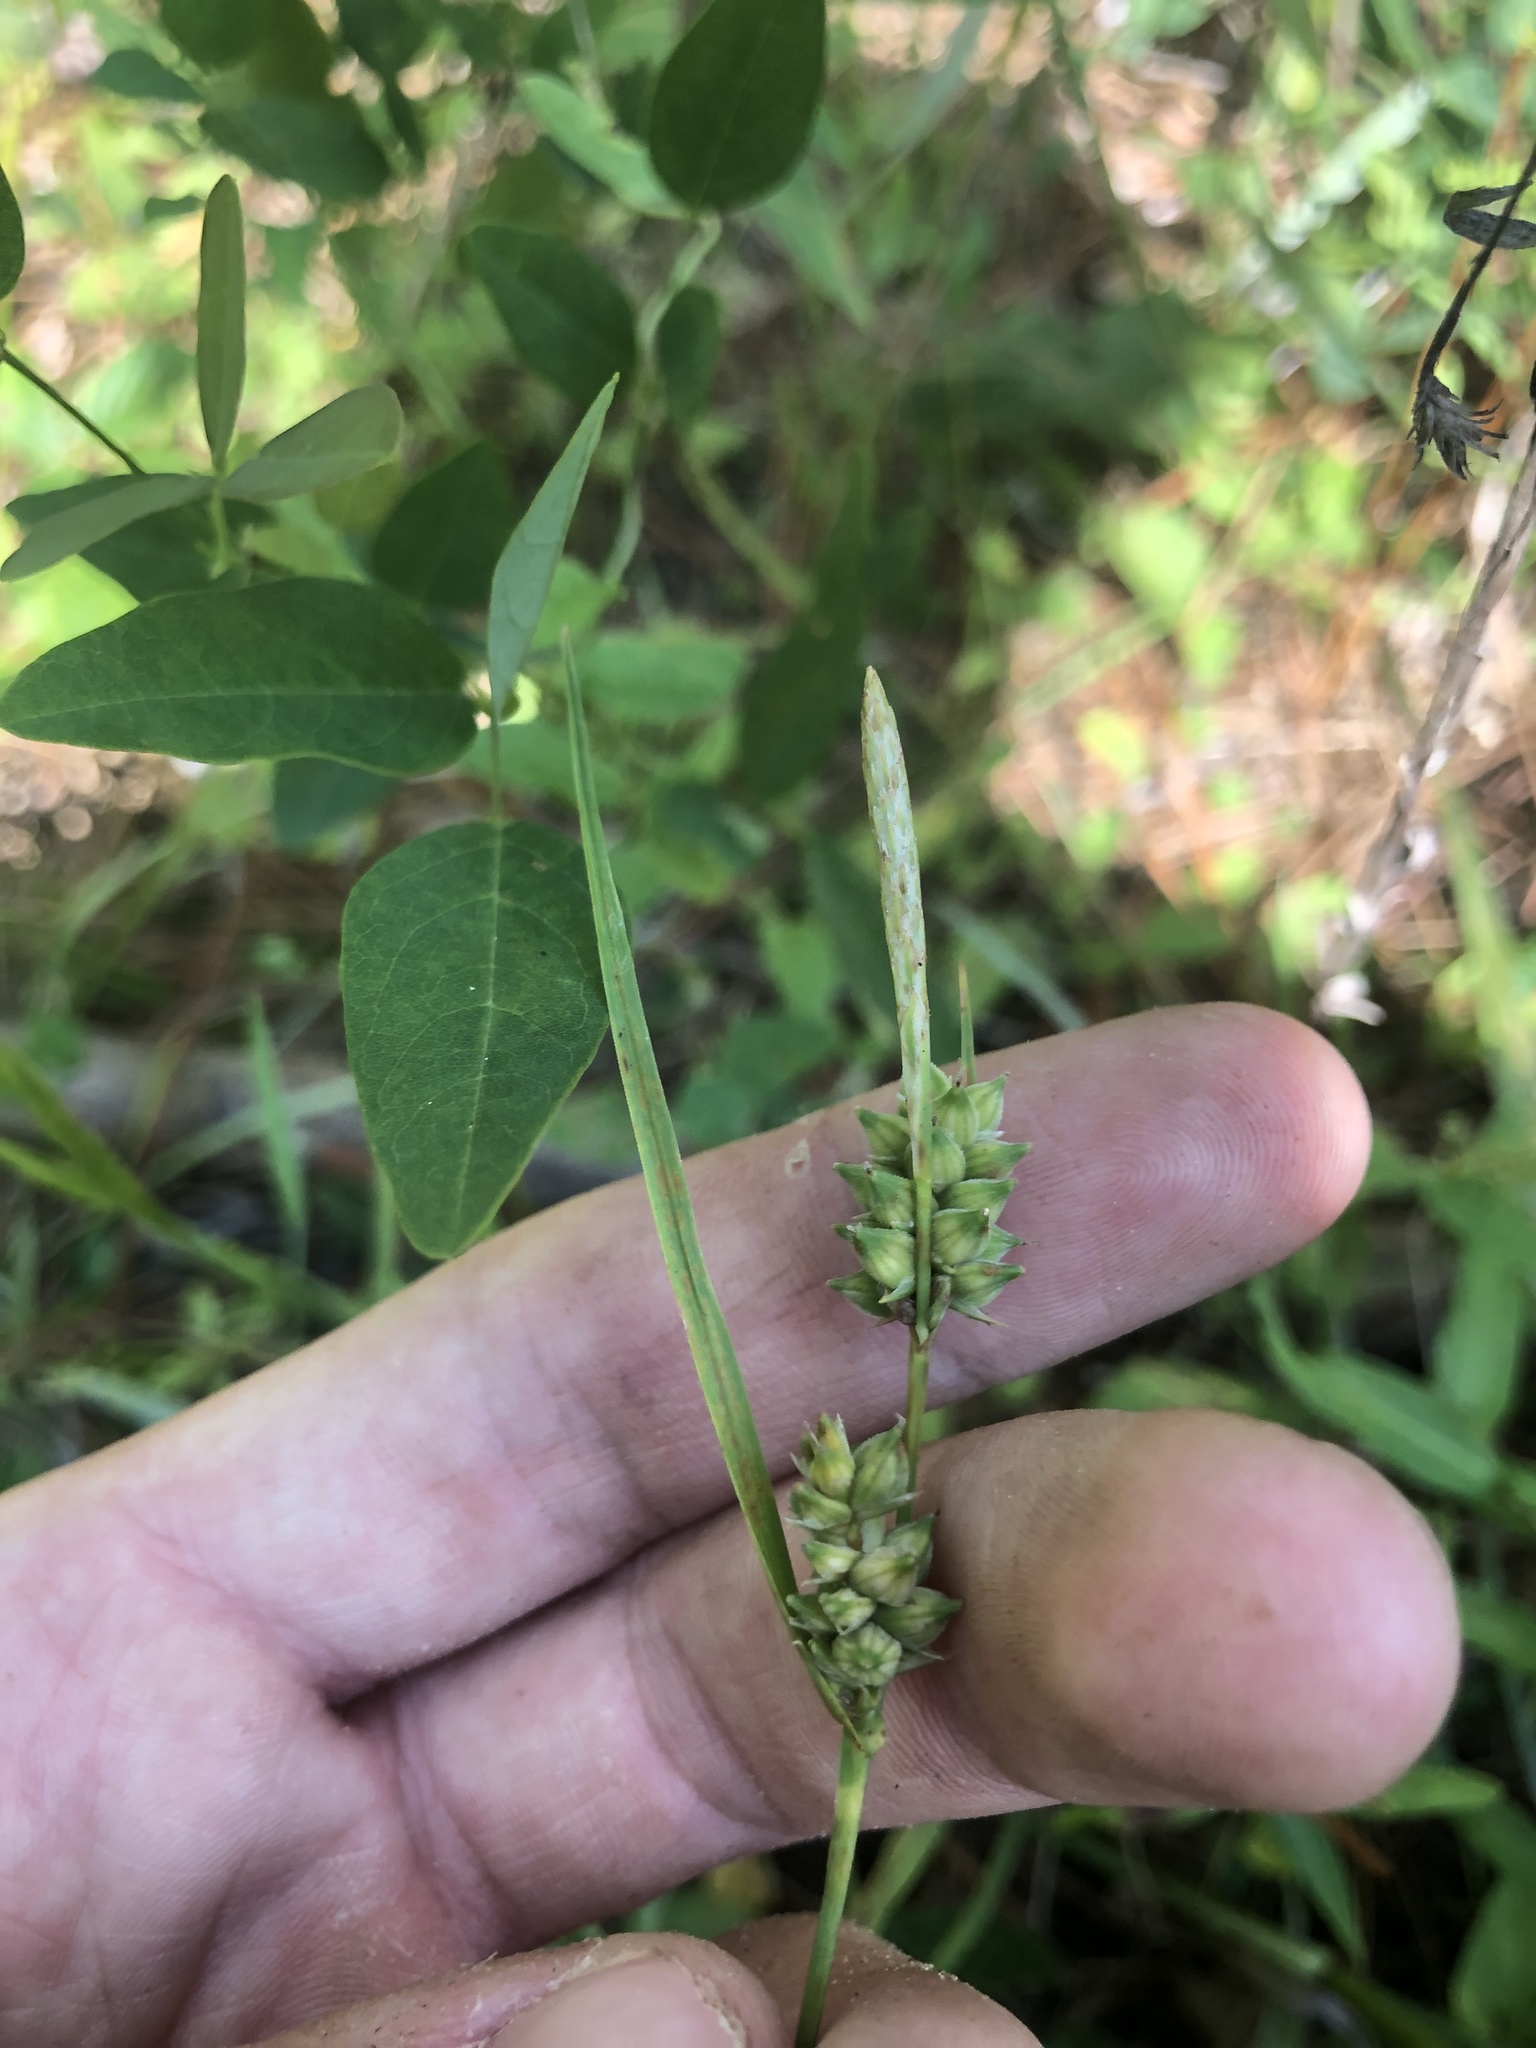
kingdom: Plantae
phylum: Tracheophyta
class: Liliopsida
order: Poales
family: Cyperaceae
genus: Carex
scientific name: Carex tenax
